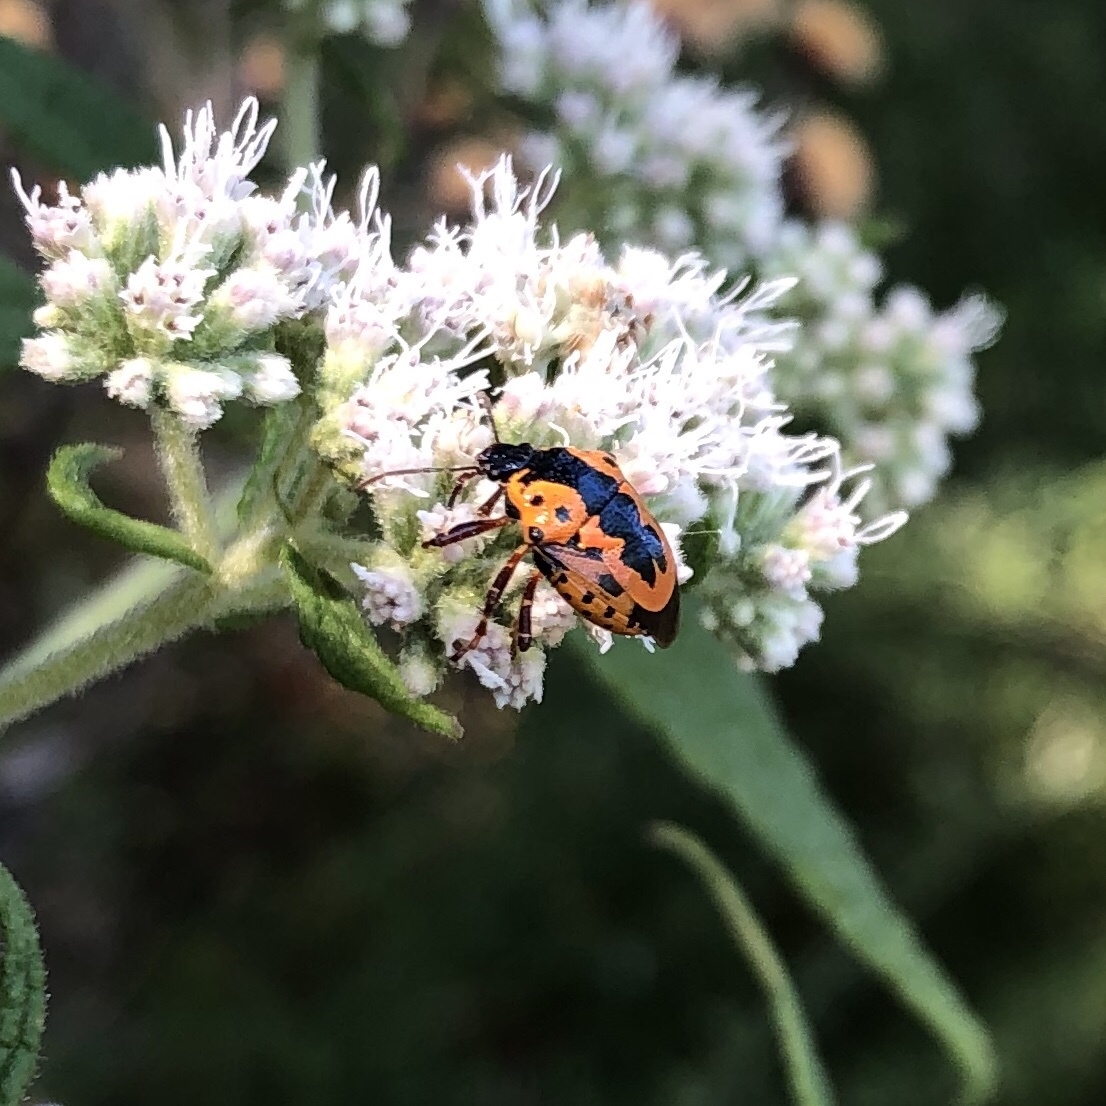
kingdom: Animalia
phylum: Arthropoda
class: Insecta
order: Hemiptera
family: Pentatomidae
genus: Stiretrus
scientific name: Stiretrus anchorago
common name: Anchor stink bug
